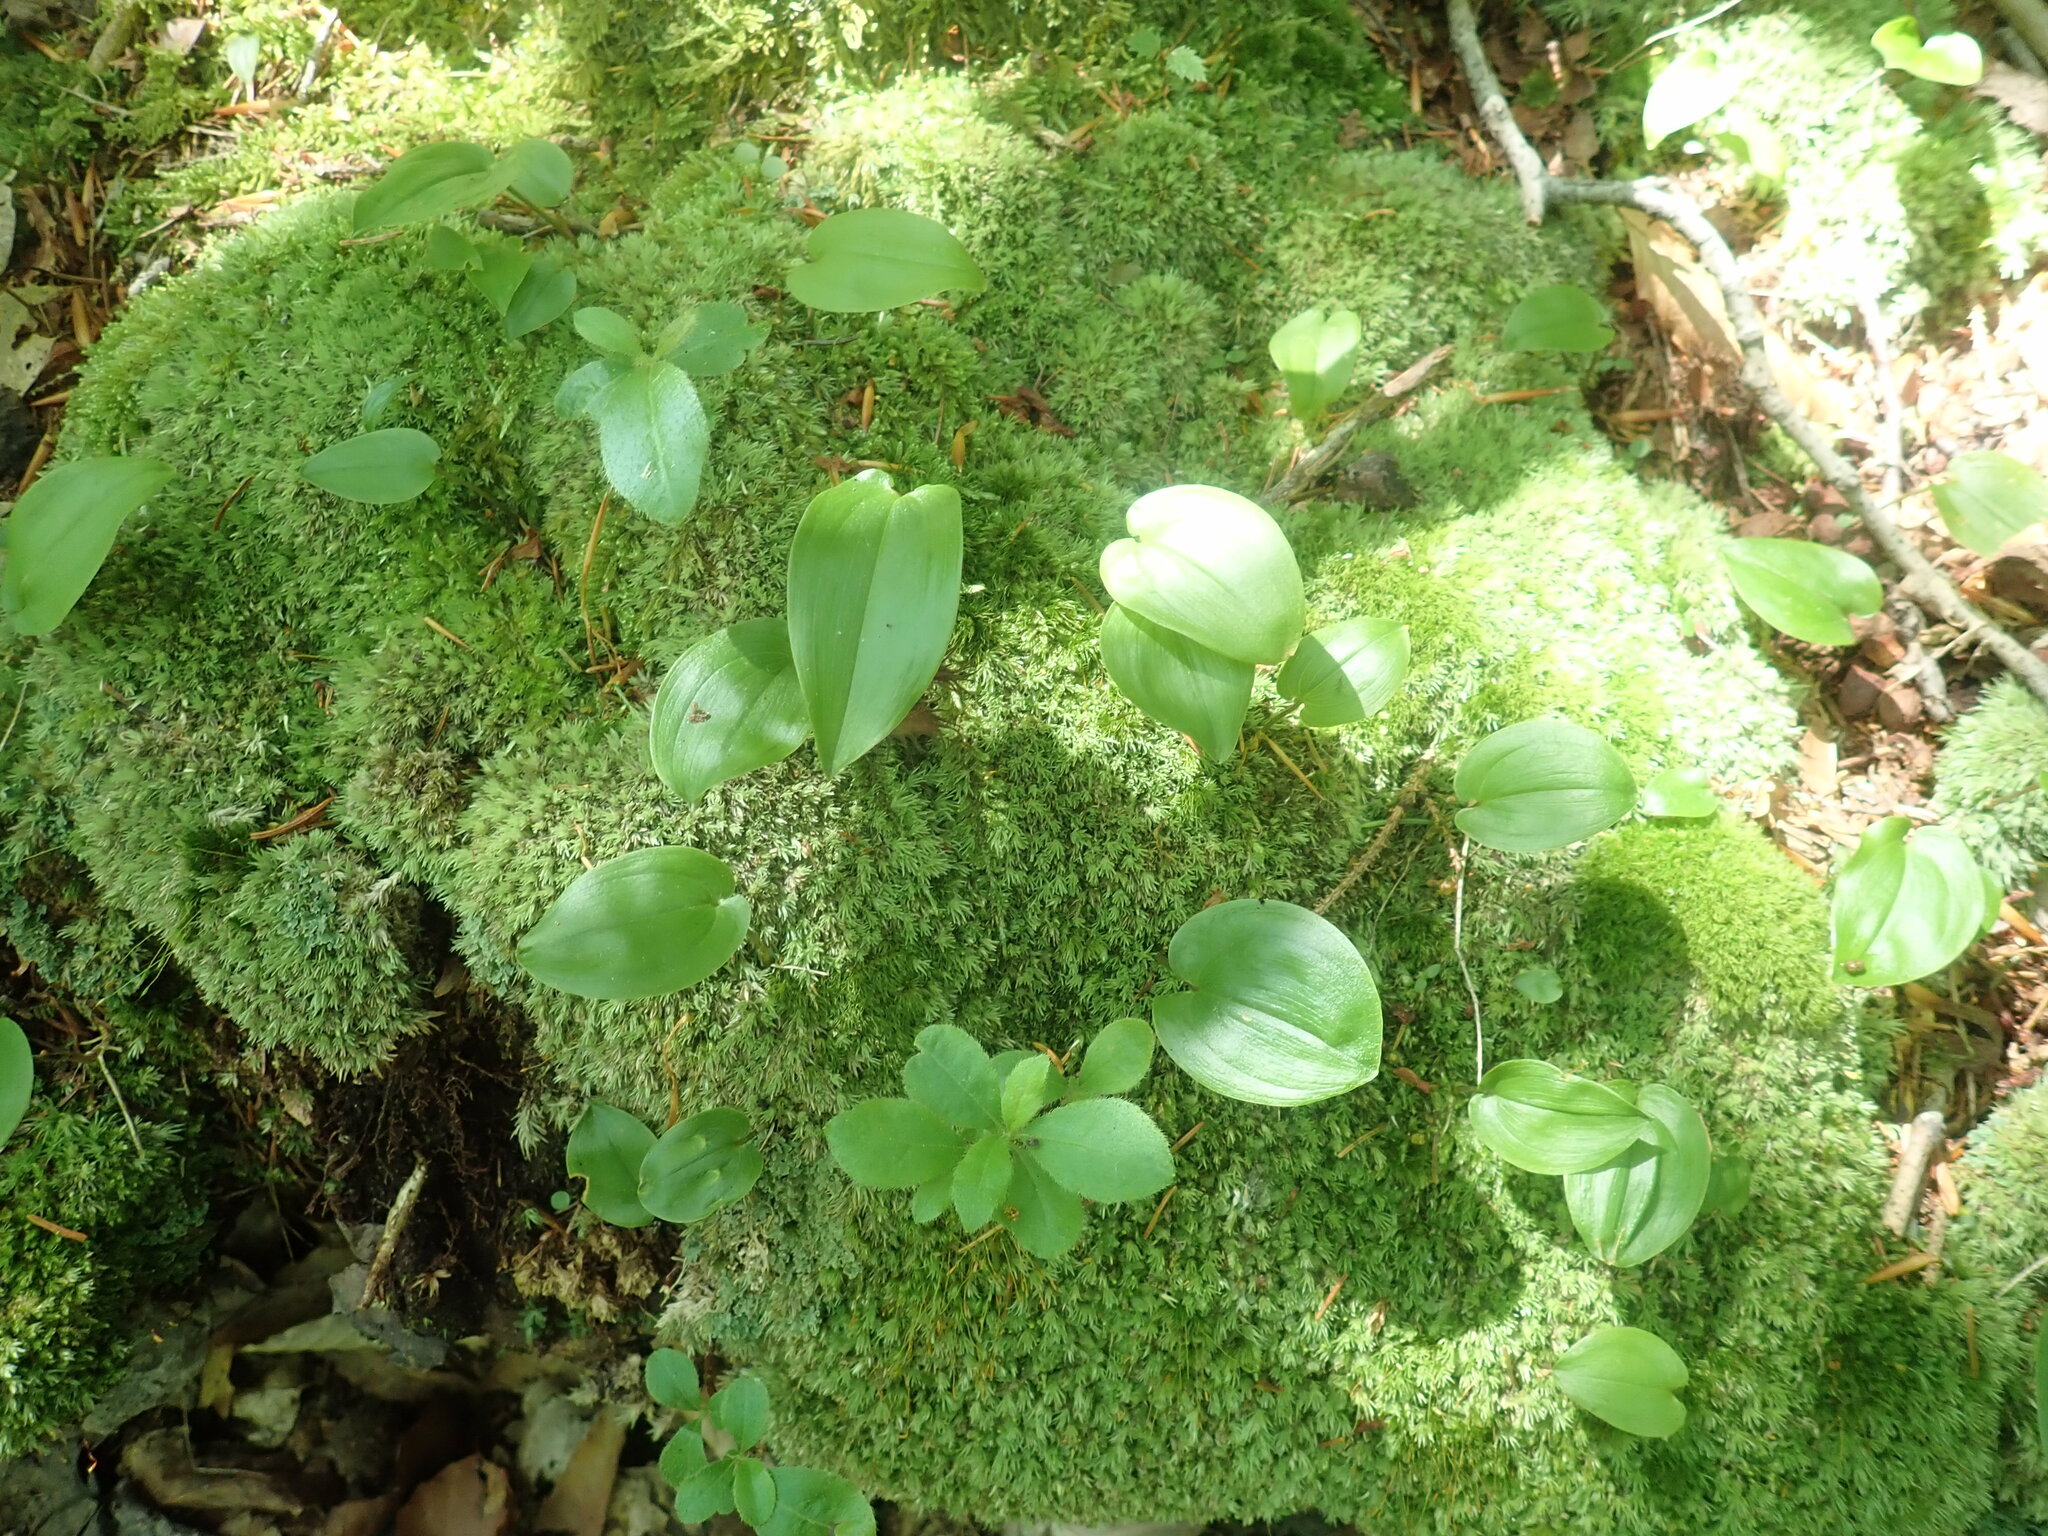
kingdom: Plantae
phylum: Tracheophyta
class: Liliopsida
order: Asparagales
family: Asparagaceae
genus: Maianthemum
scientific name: Maianthemum canadense
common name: False lily-of-the-valley
